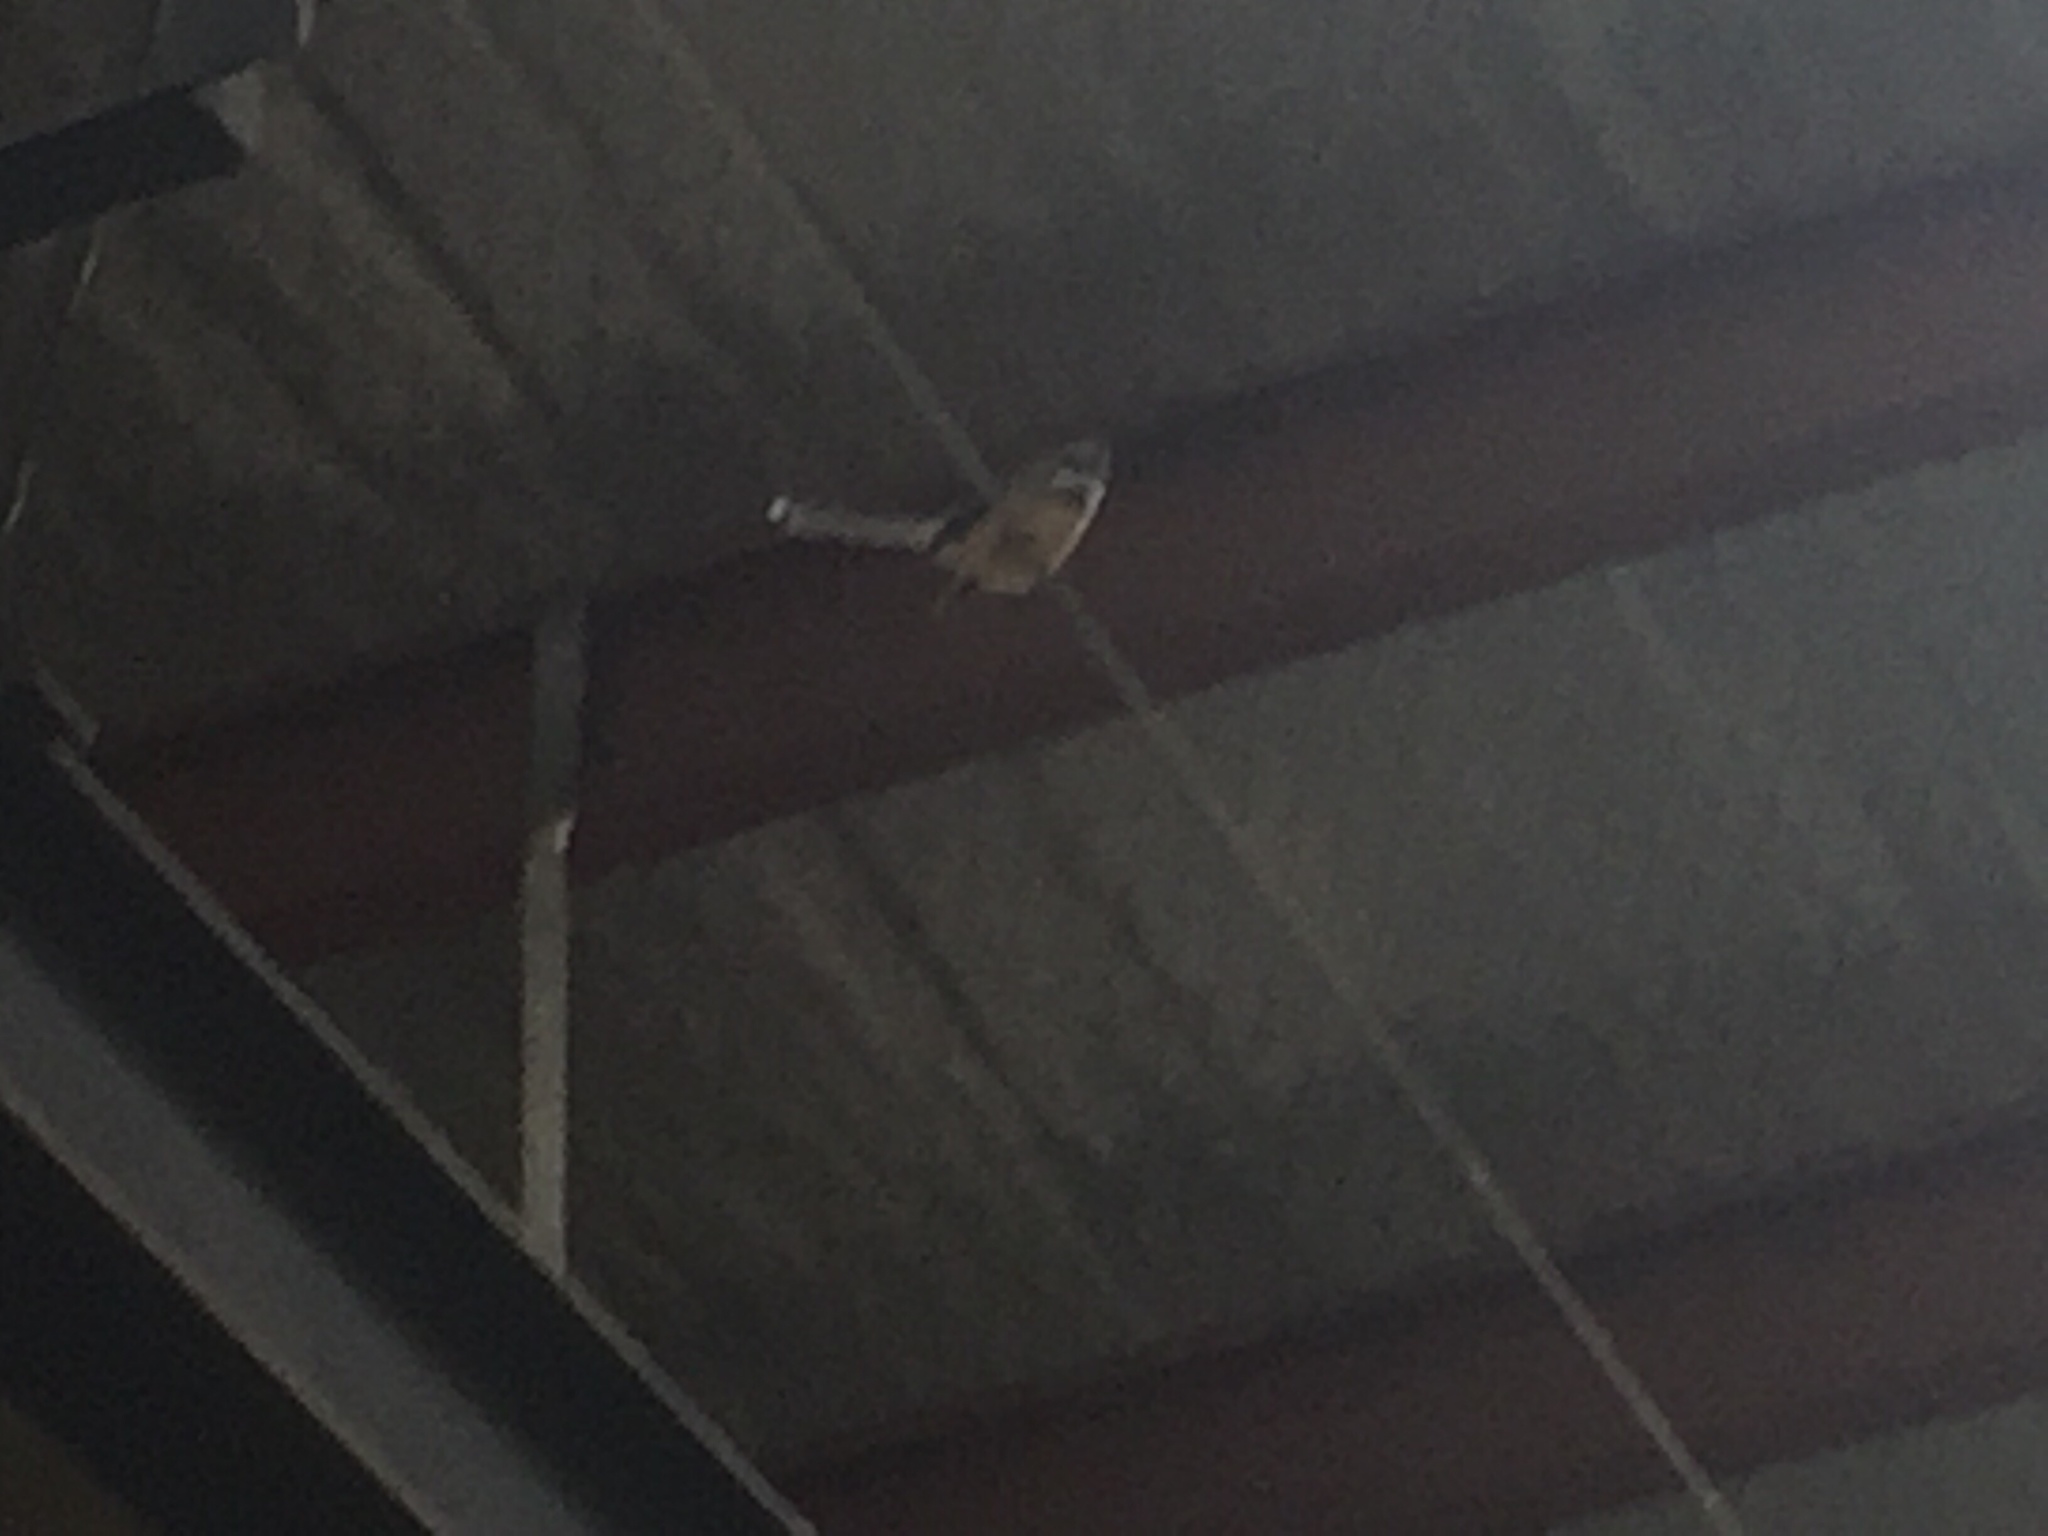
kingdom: Animalia
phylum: Chordata
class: Aves
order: Passeriformes
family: Rhipiduridae
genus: Rhipidura
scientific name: Rhipidura fuliginosa
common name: New zealand fantail
